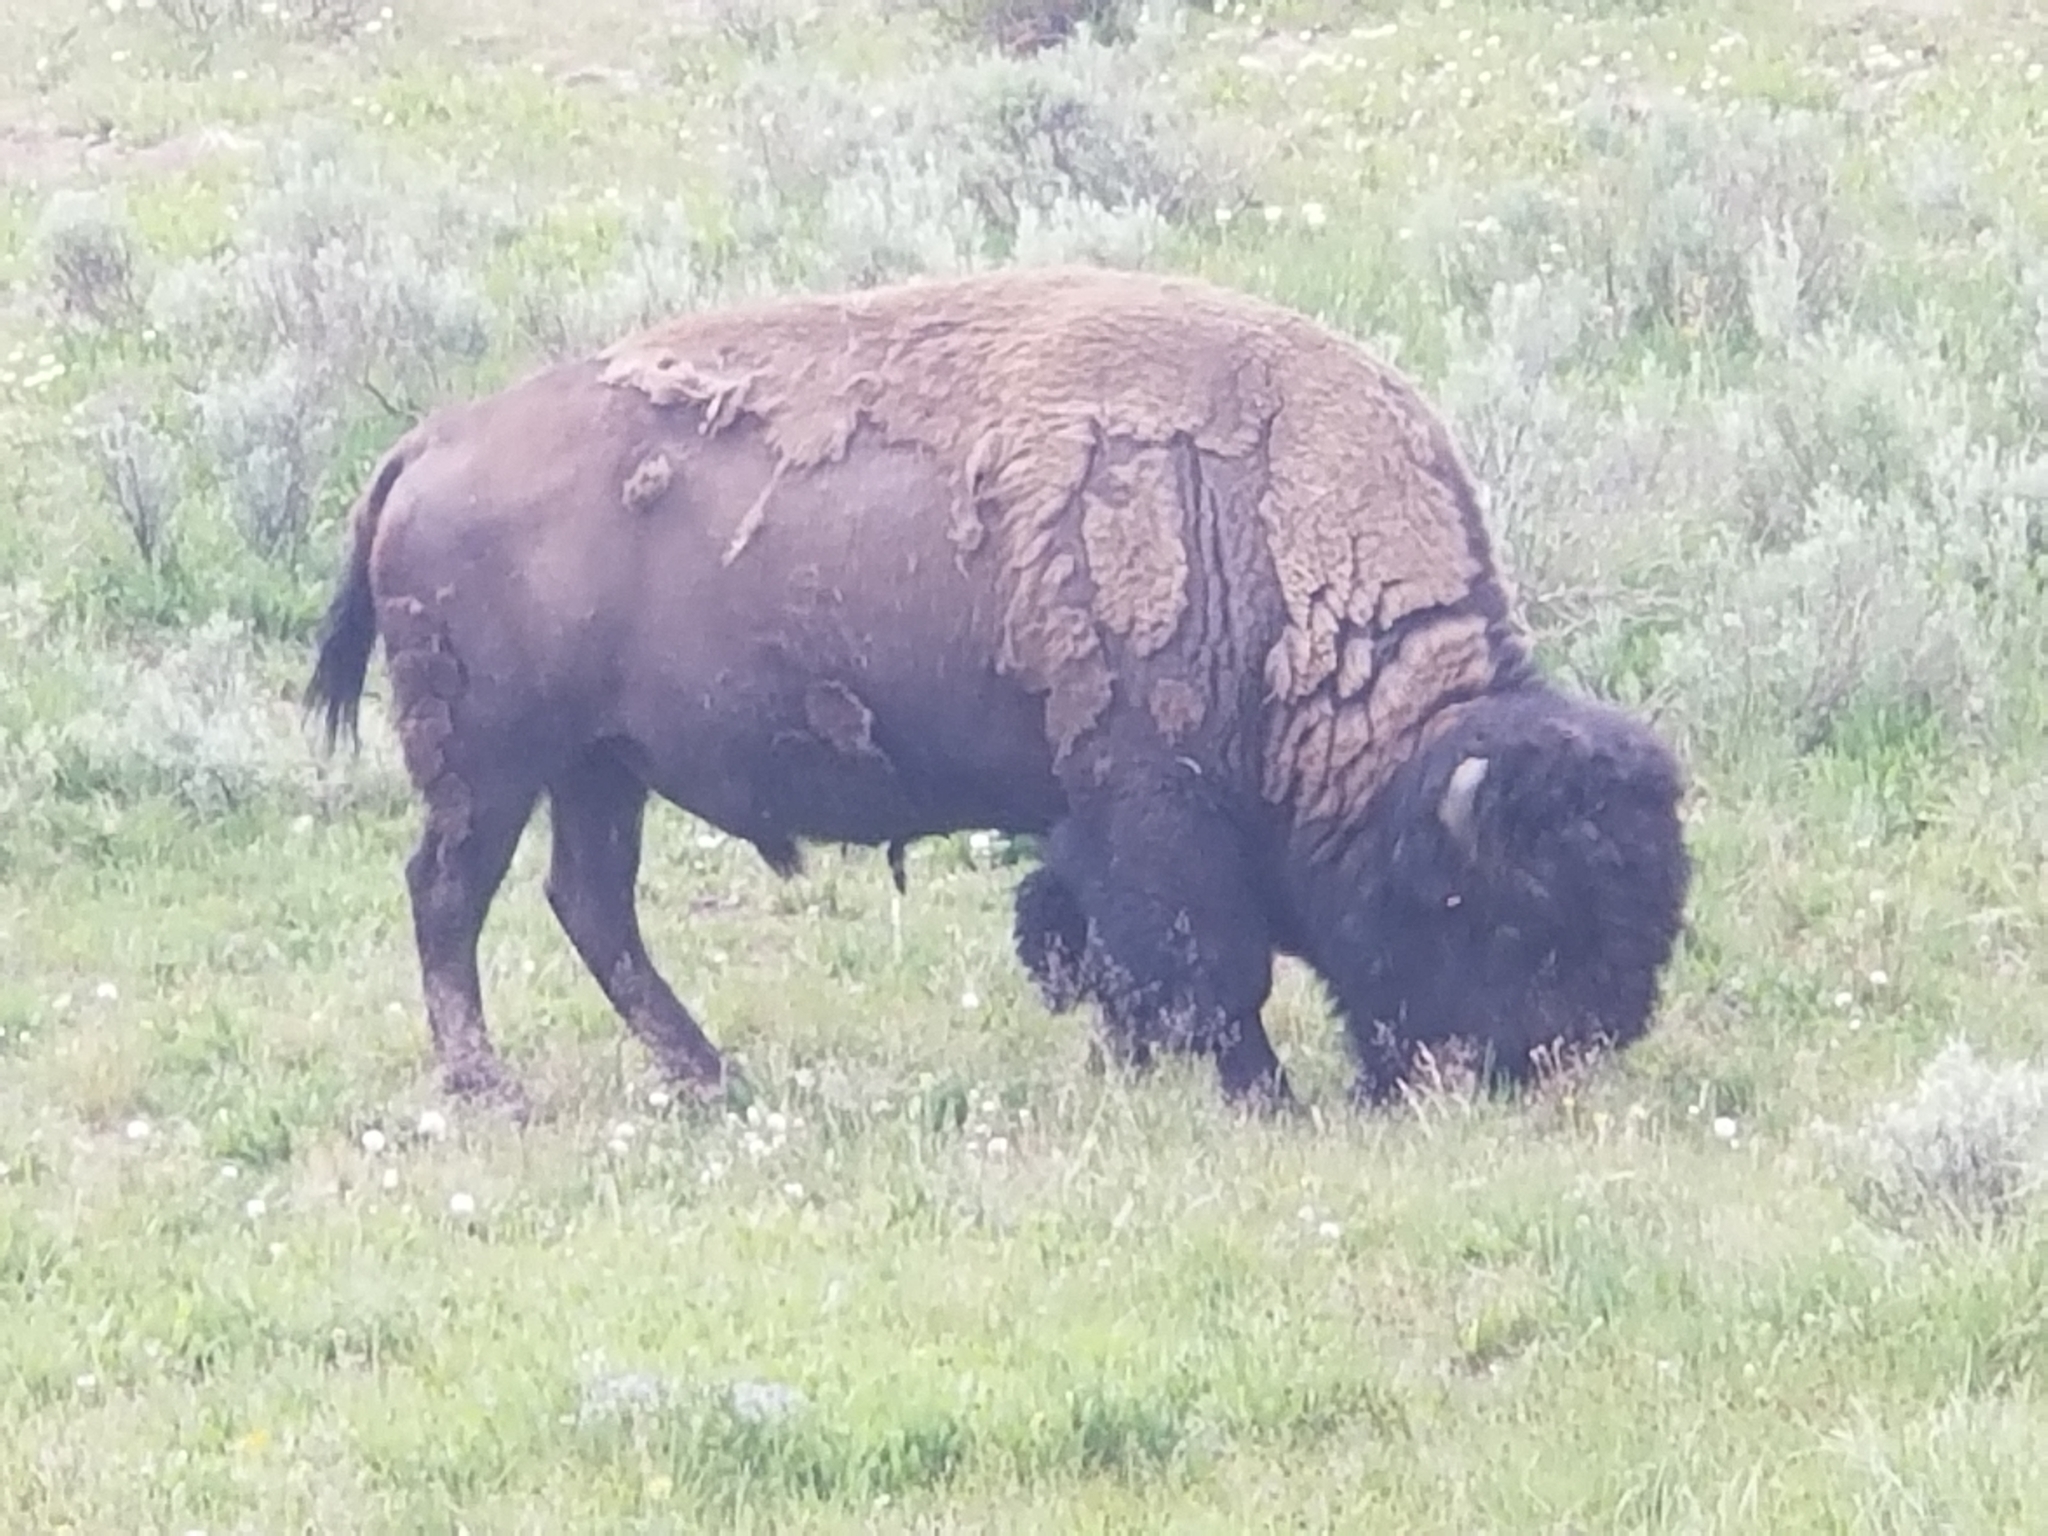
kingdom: Animalia
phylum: Chordata
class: Mammalia
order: Artiodactyla
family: Bovidae
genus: Bison
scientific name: Bison bison
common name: American bison
